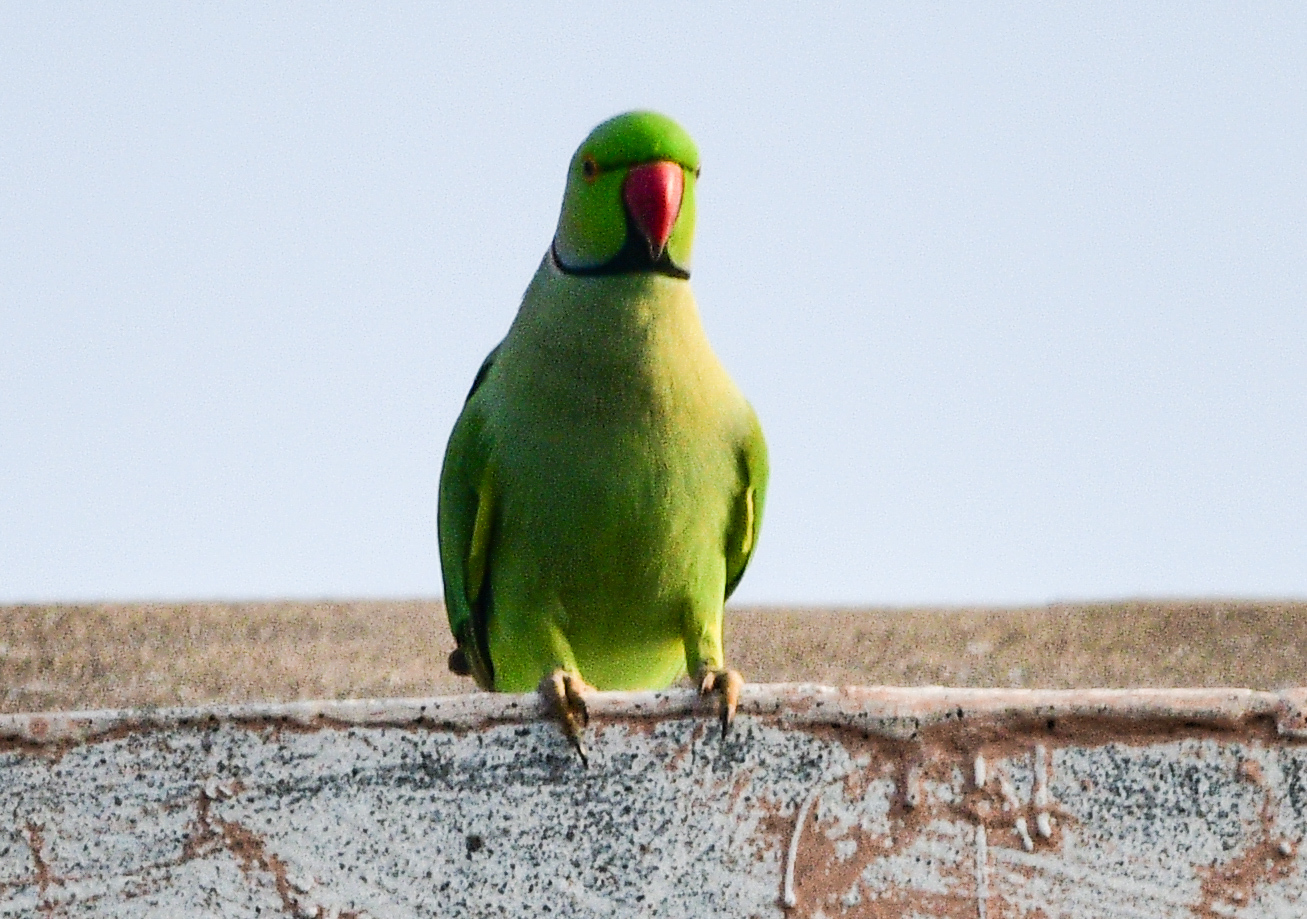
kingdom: Animalia
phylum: Chordata
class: Aves
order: Psittaciformes
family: Psittacidae
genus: Psittacula
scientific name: Psittacula krameri
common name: Rose-ringed parakeet
